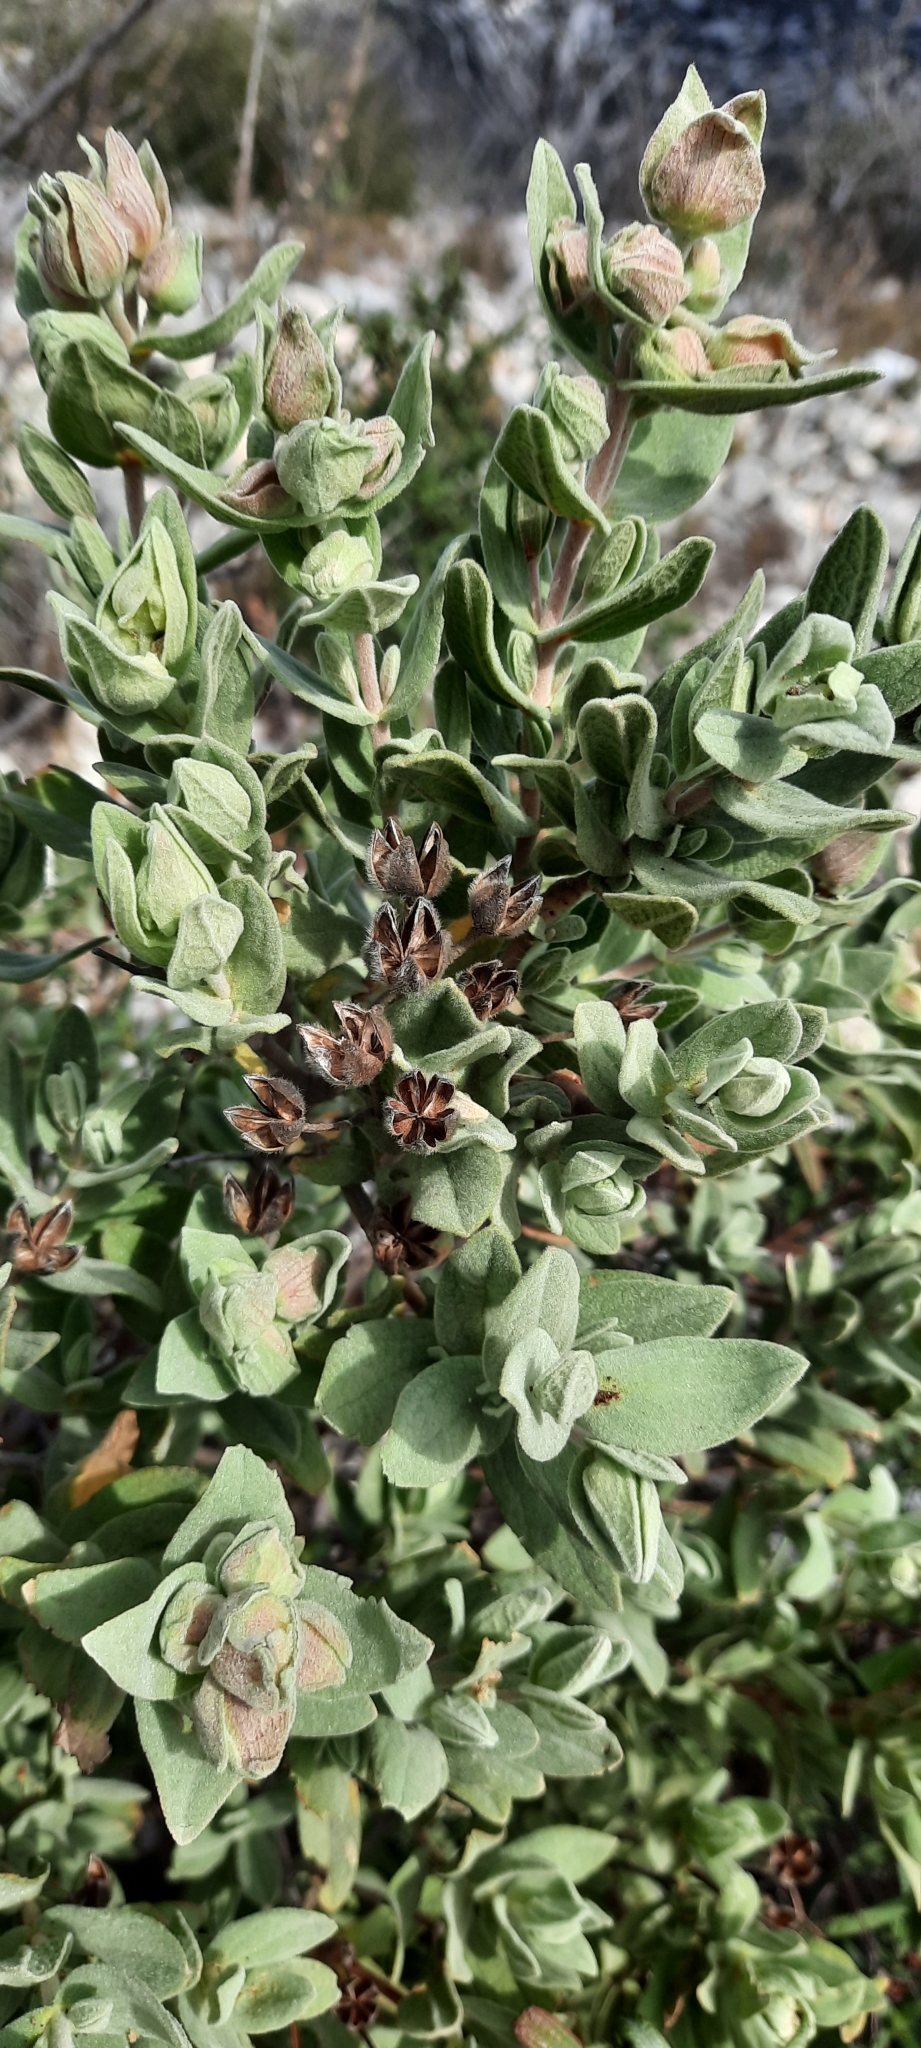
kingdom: Plantae
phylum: Tracheophyta
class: Magnoliopsida
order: Malvales
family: Cistaceae
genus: Cistus
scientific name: Cistus albidus
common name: White-leaf rock-rose
